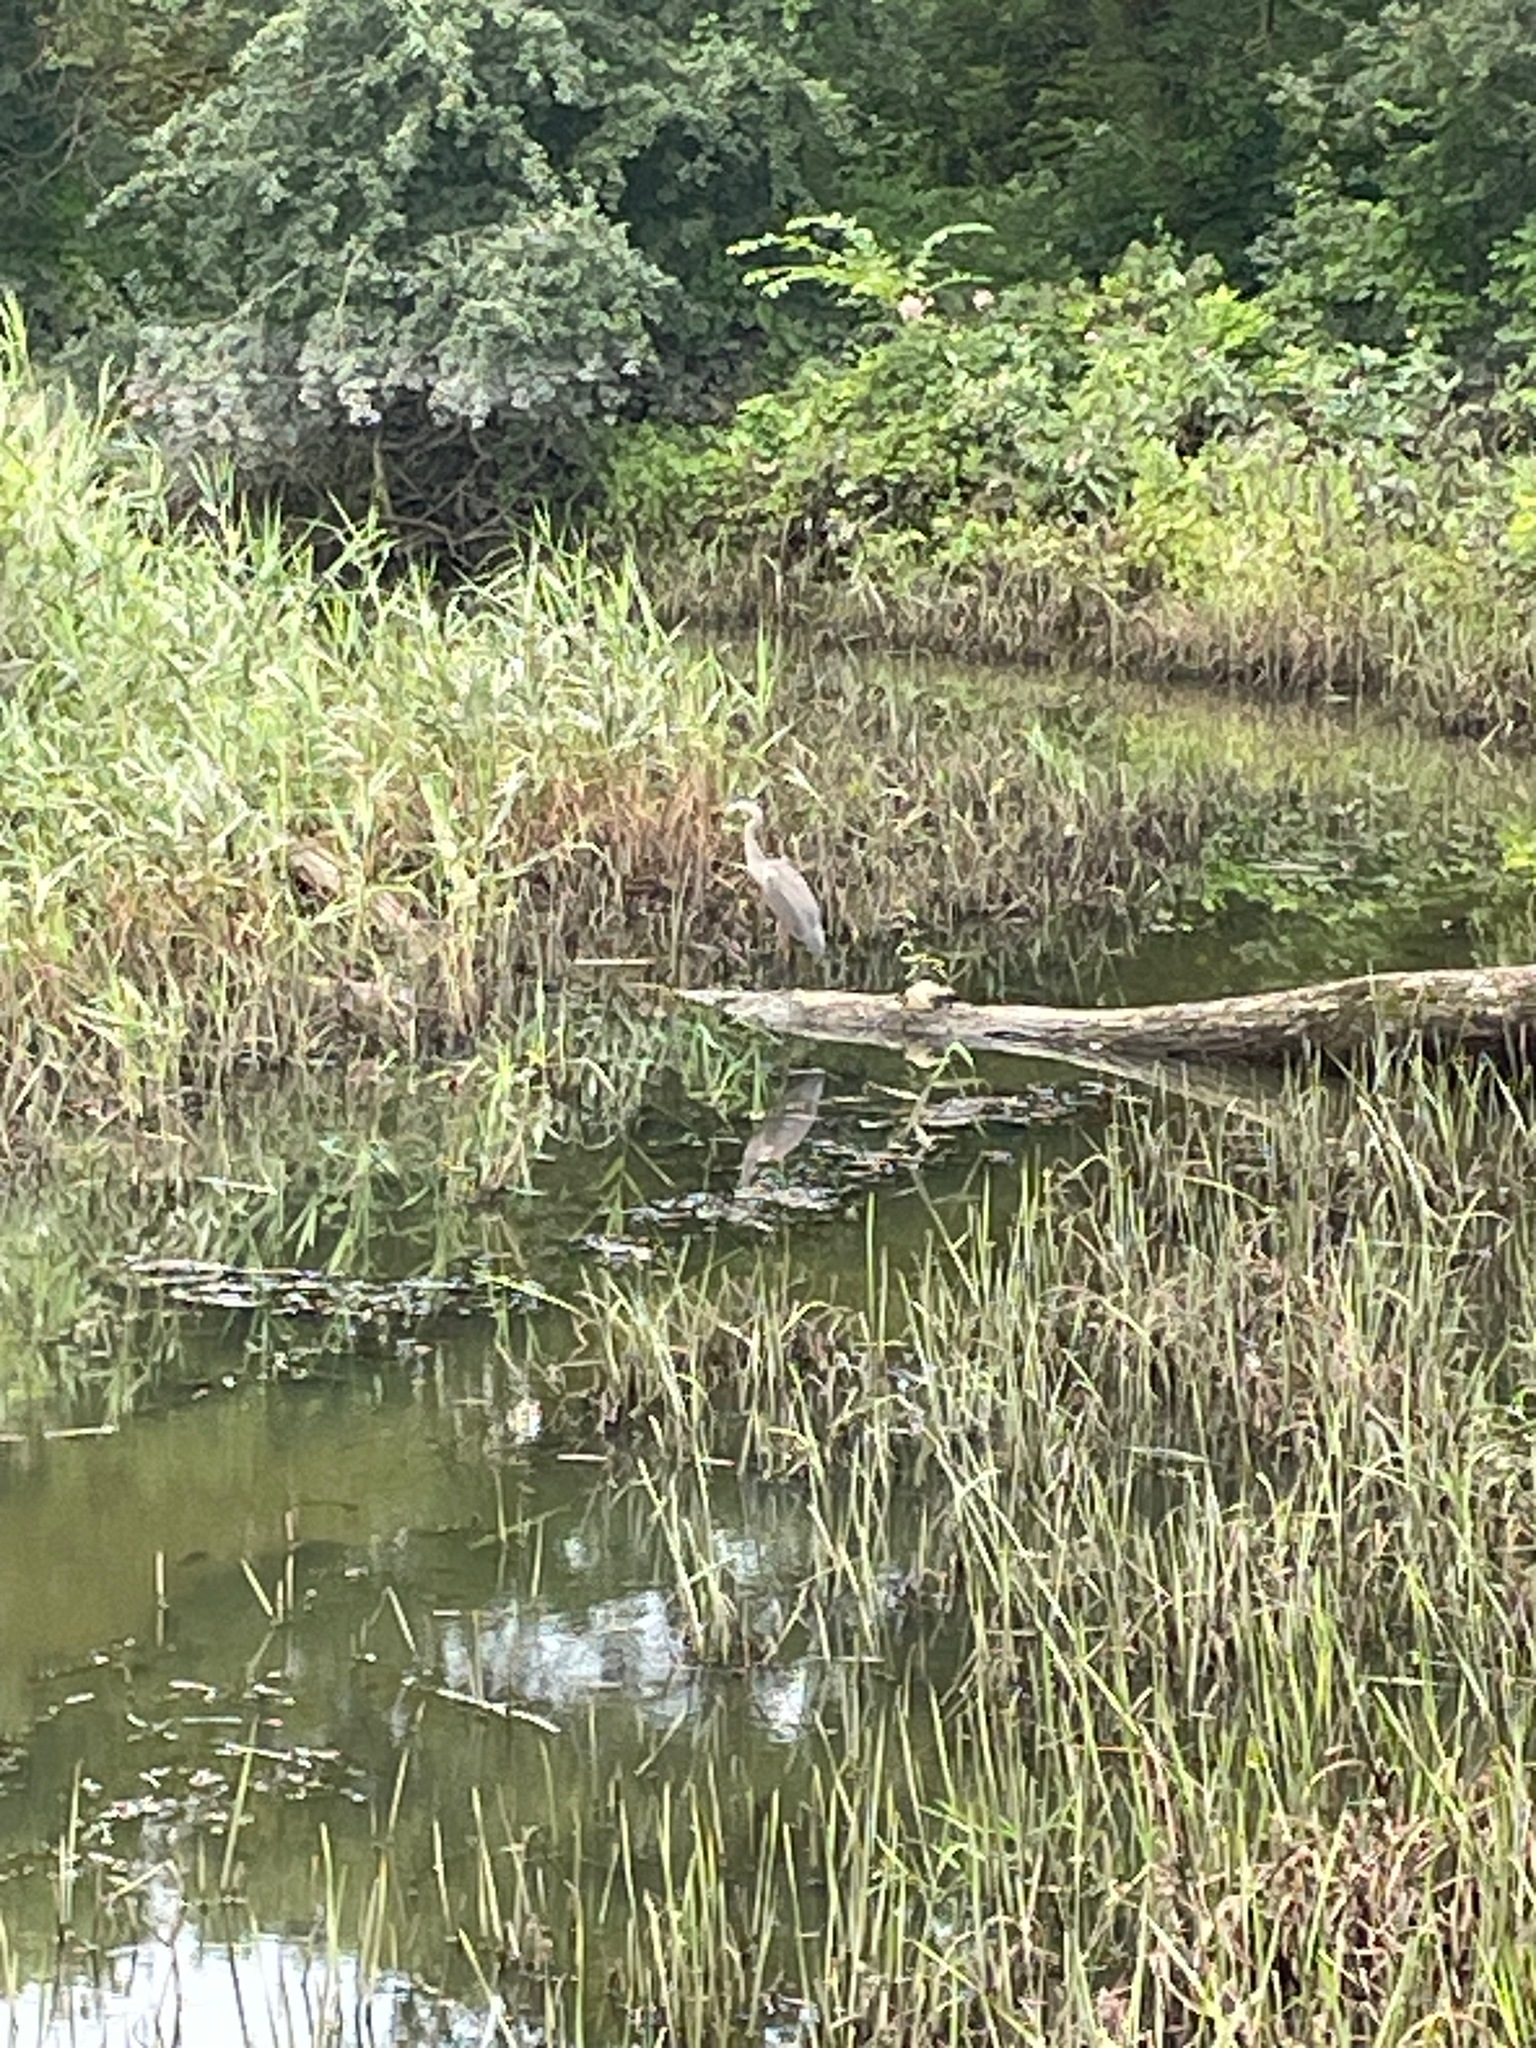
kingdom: Animalia
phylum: Chordata
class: Aves
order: Pelecaniformes
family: Ardeidae
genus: Ardea
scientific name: Ardea herodias
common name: Great blue heron
